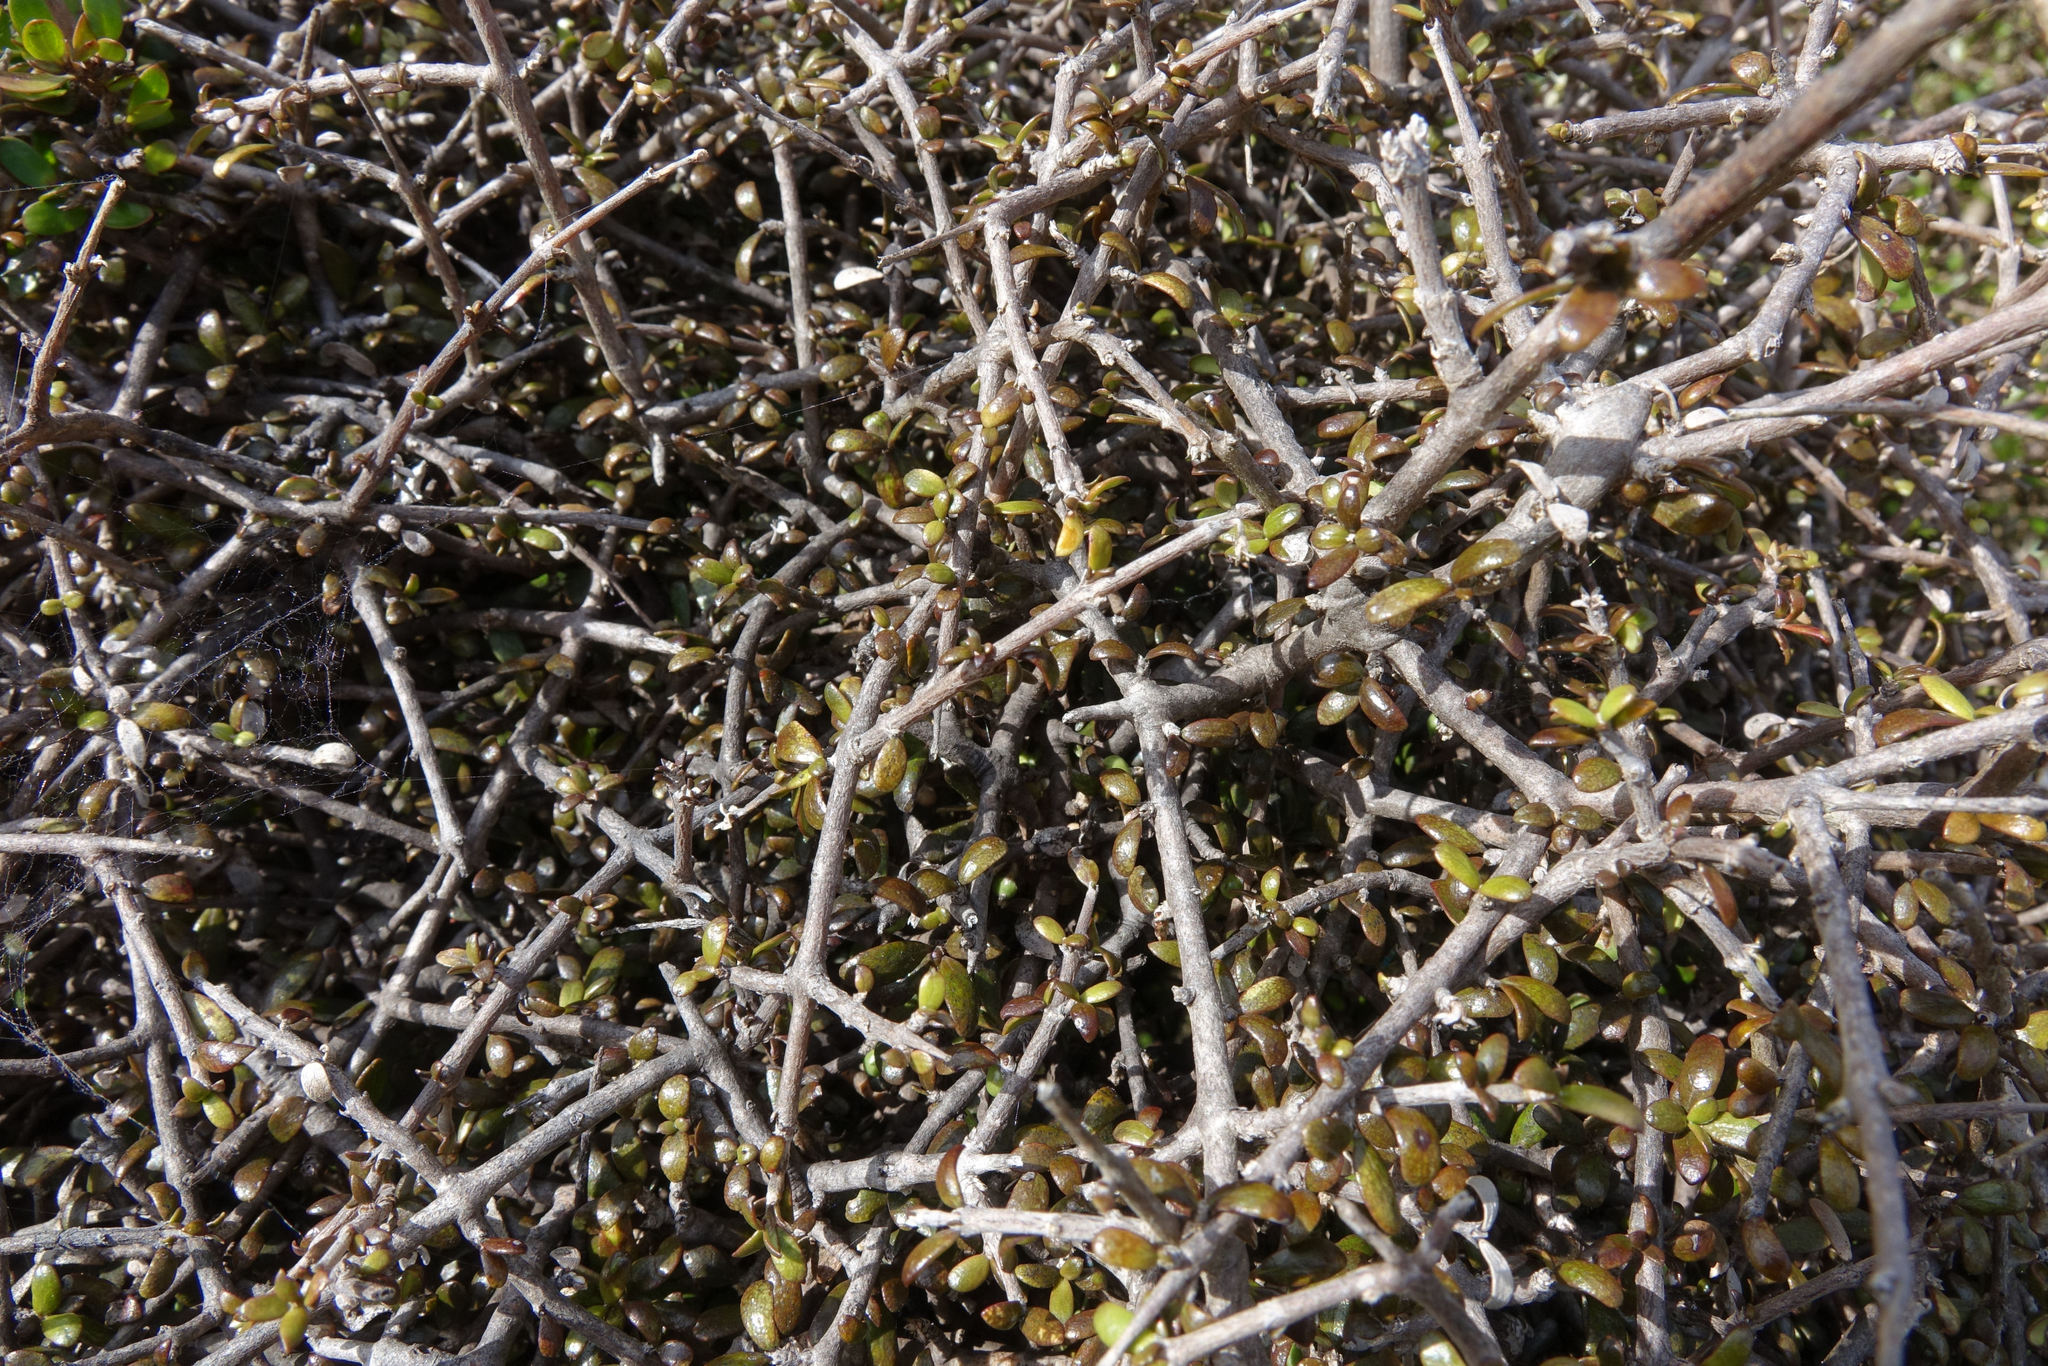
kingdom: Plantae
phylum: Tracheophyta
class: Magnoliopsida
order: Gentianales
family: Rubiaceae
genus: Coprosma
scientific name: Coprosma obconica
